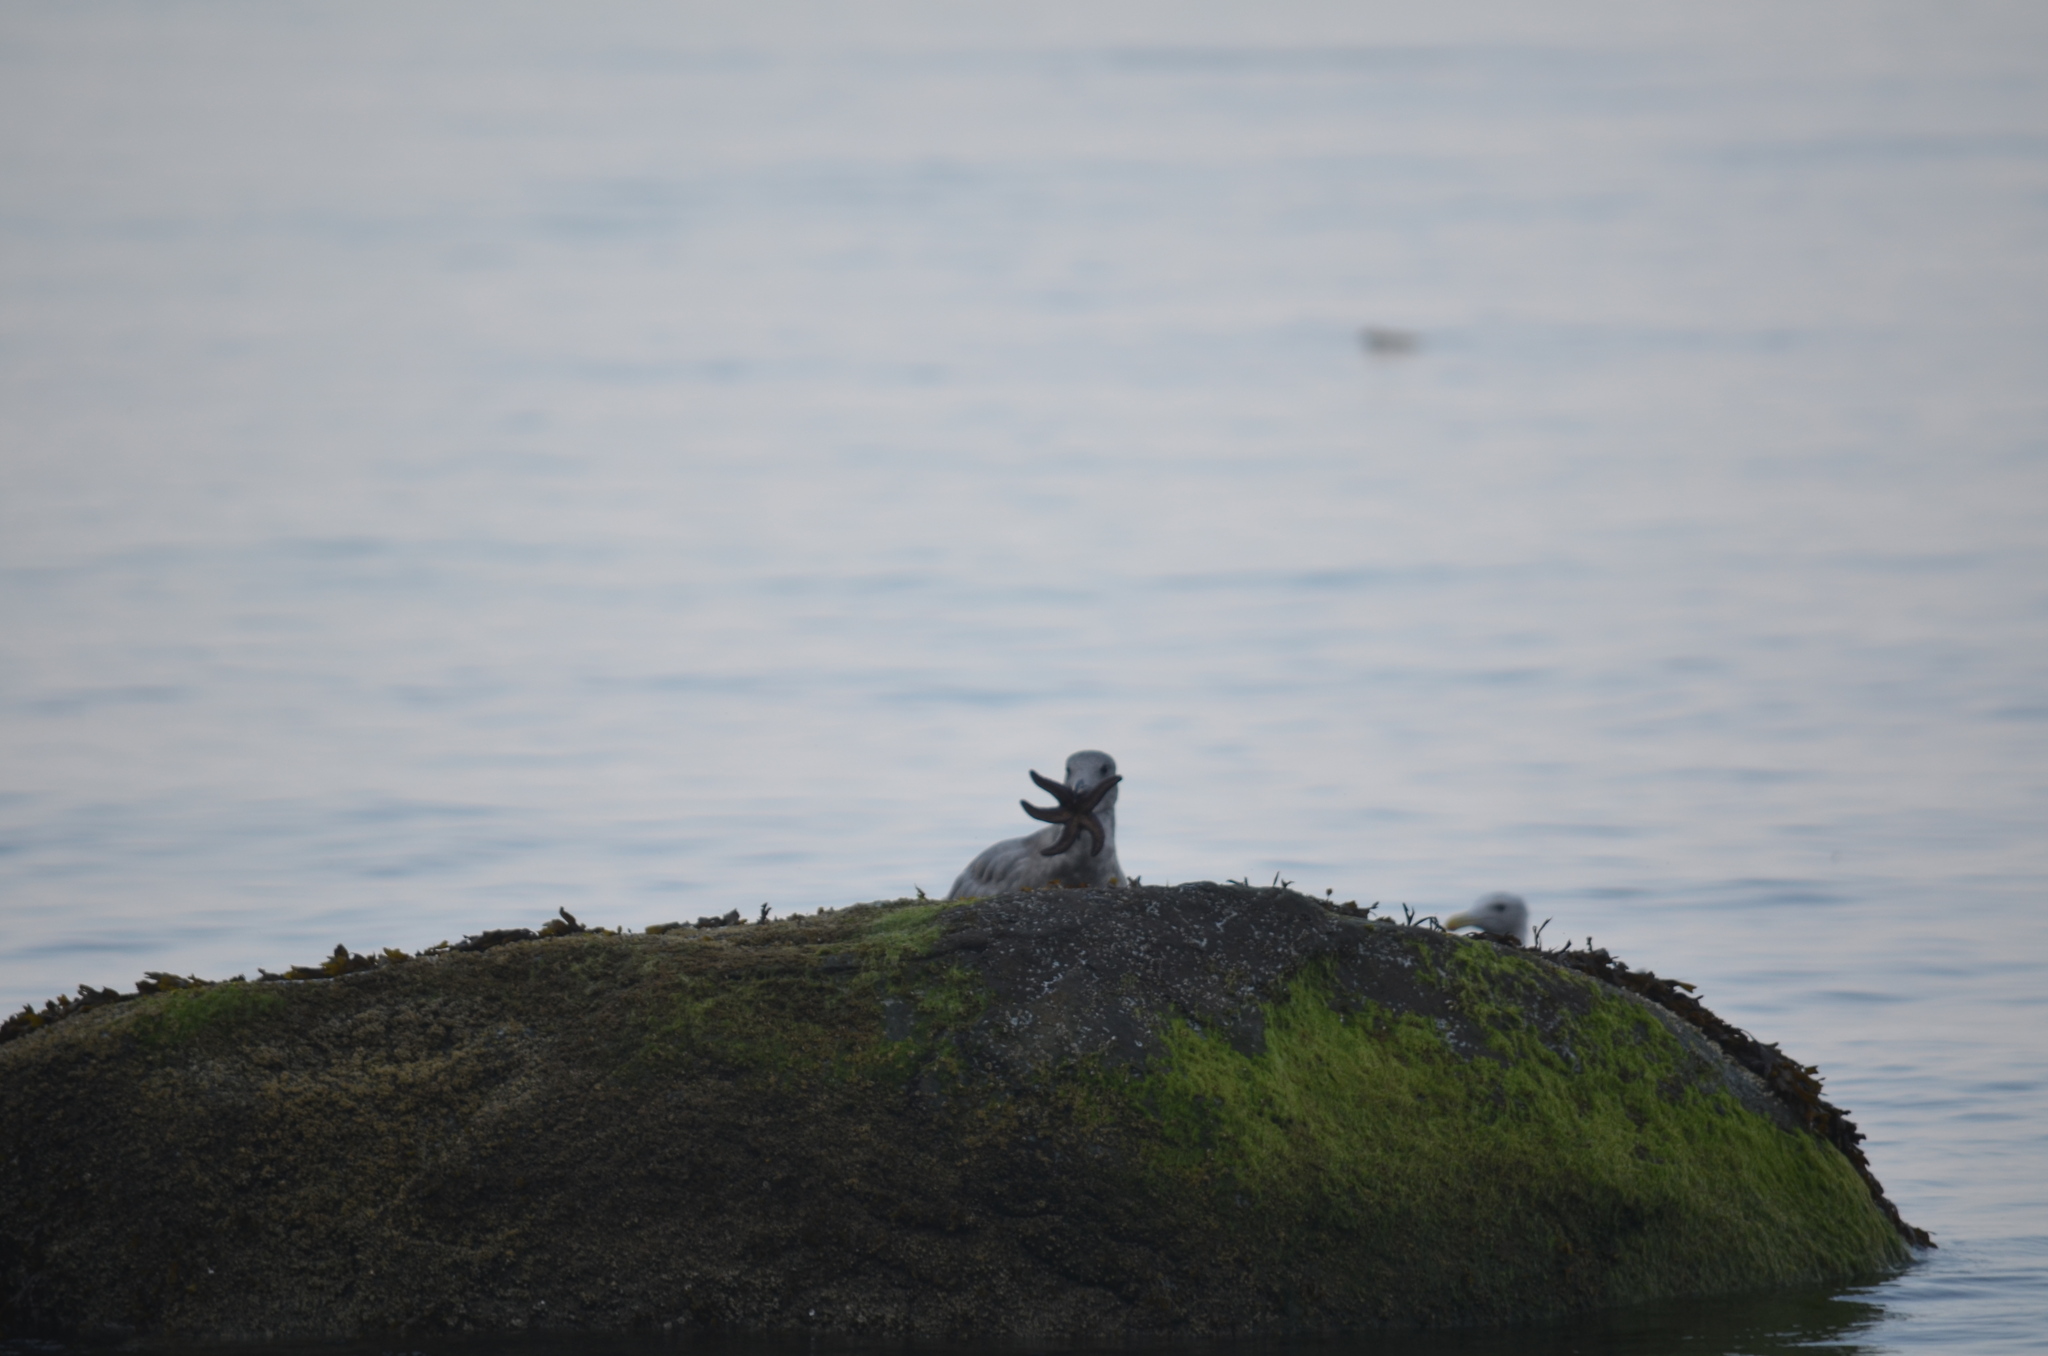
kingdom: Animalia
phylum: Echinodermata
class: Asteroidea
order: Forcipulatida
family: Asteriidae
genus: Pisaster
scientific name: Pisaster ochraceus
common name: Ochre stars
